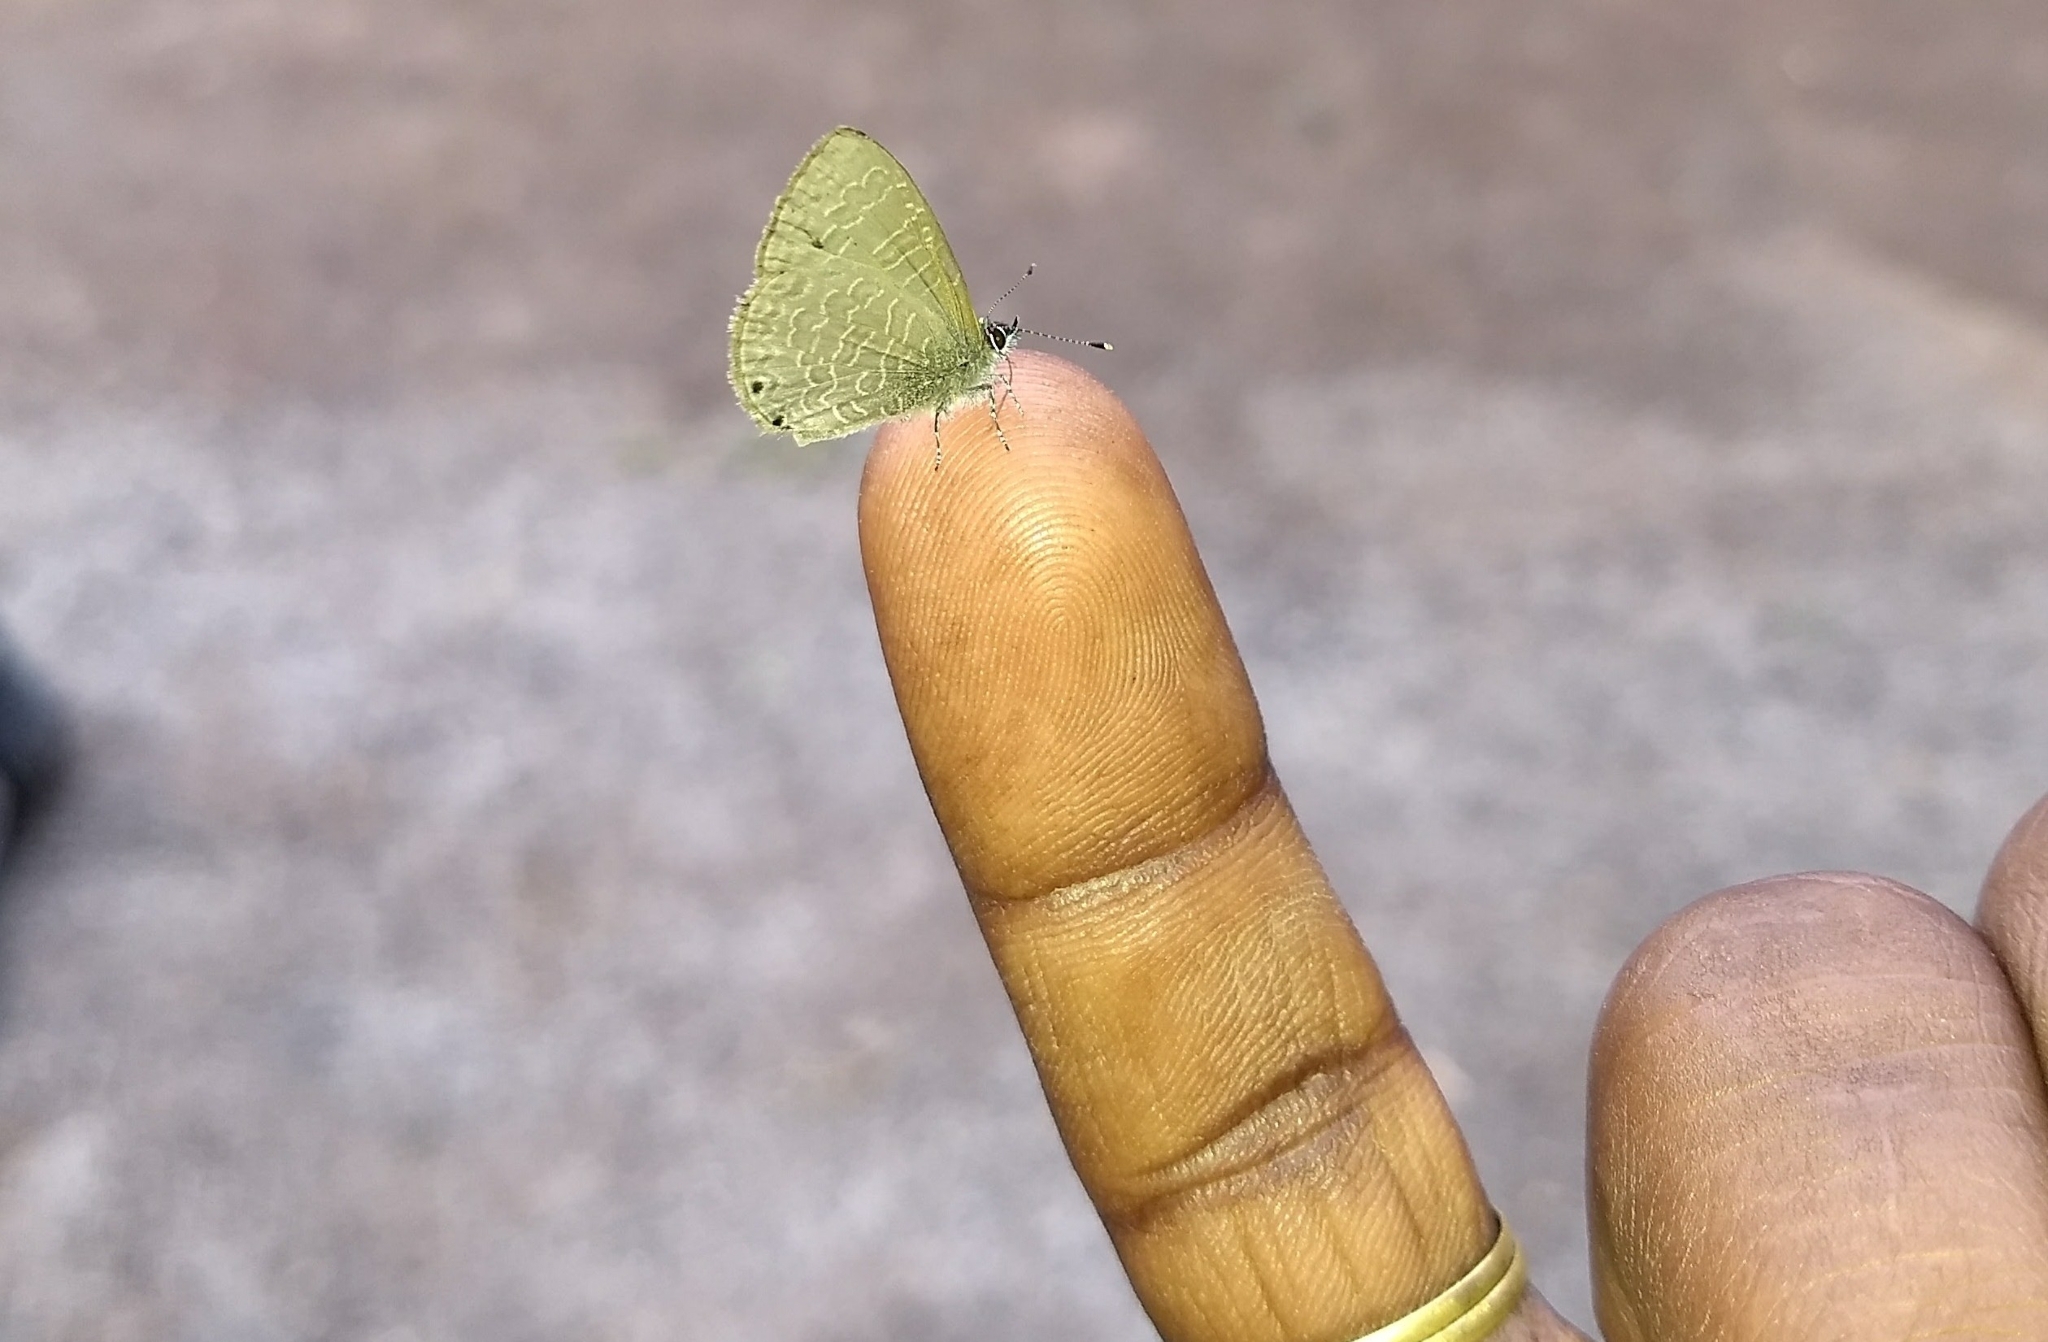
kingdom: Animalia
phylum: Arthropoda
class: Insecta
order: Lepidoptera
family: Lycaenidae
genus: Petrelaea
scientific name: Petrelaea dana
